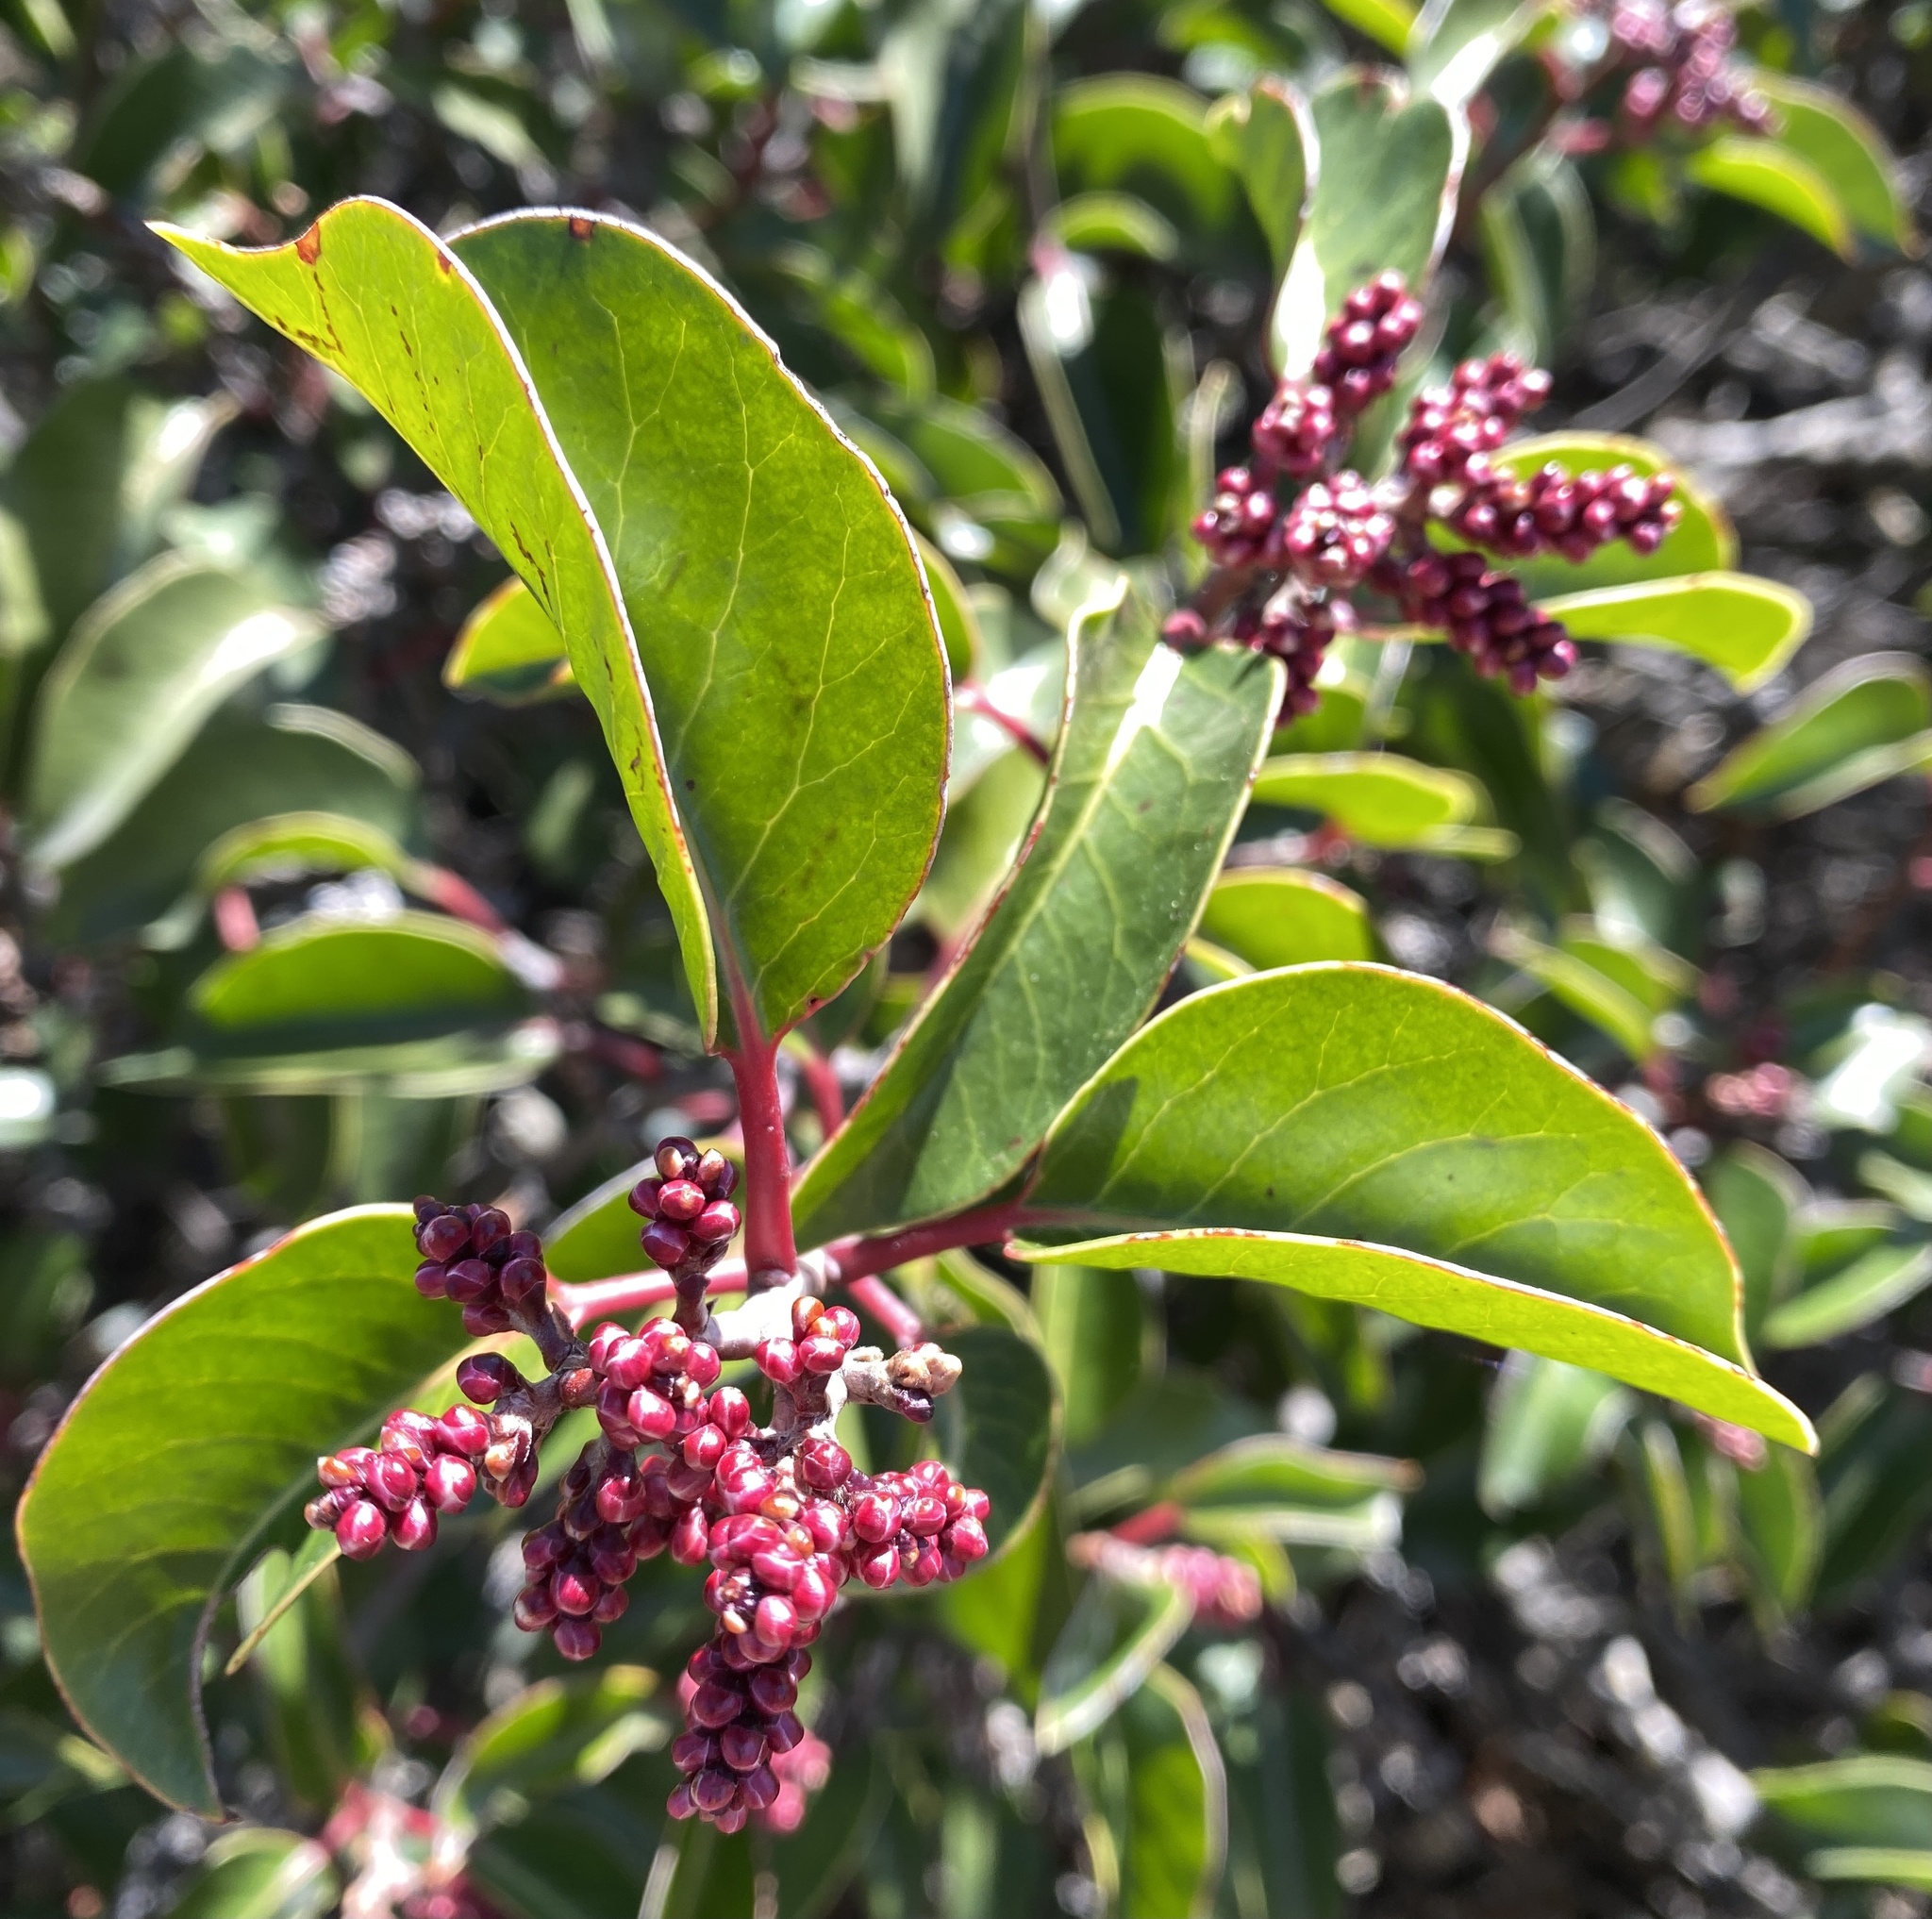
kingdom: Plantae
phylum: Tracheophyta
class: Magnoliopsida
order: Sapindales
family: Anacardiaceae
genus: Rhus
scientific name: Rhus ovata
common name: Sugar sumac
